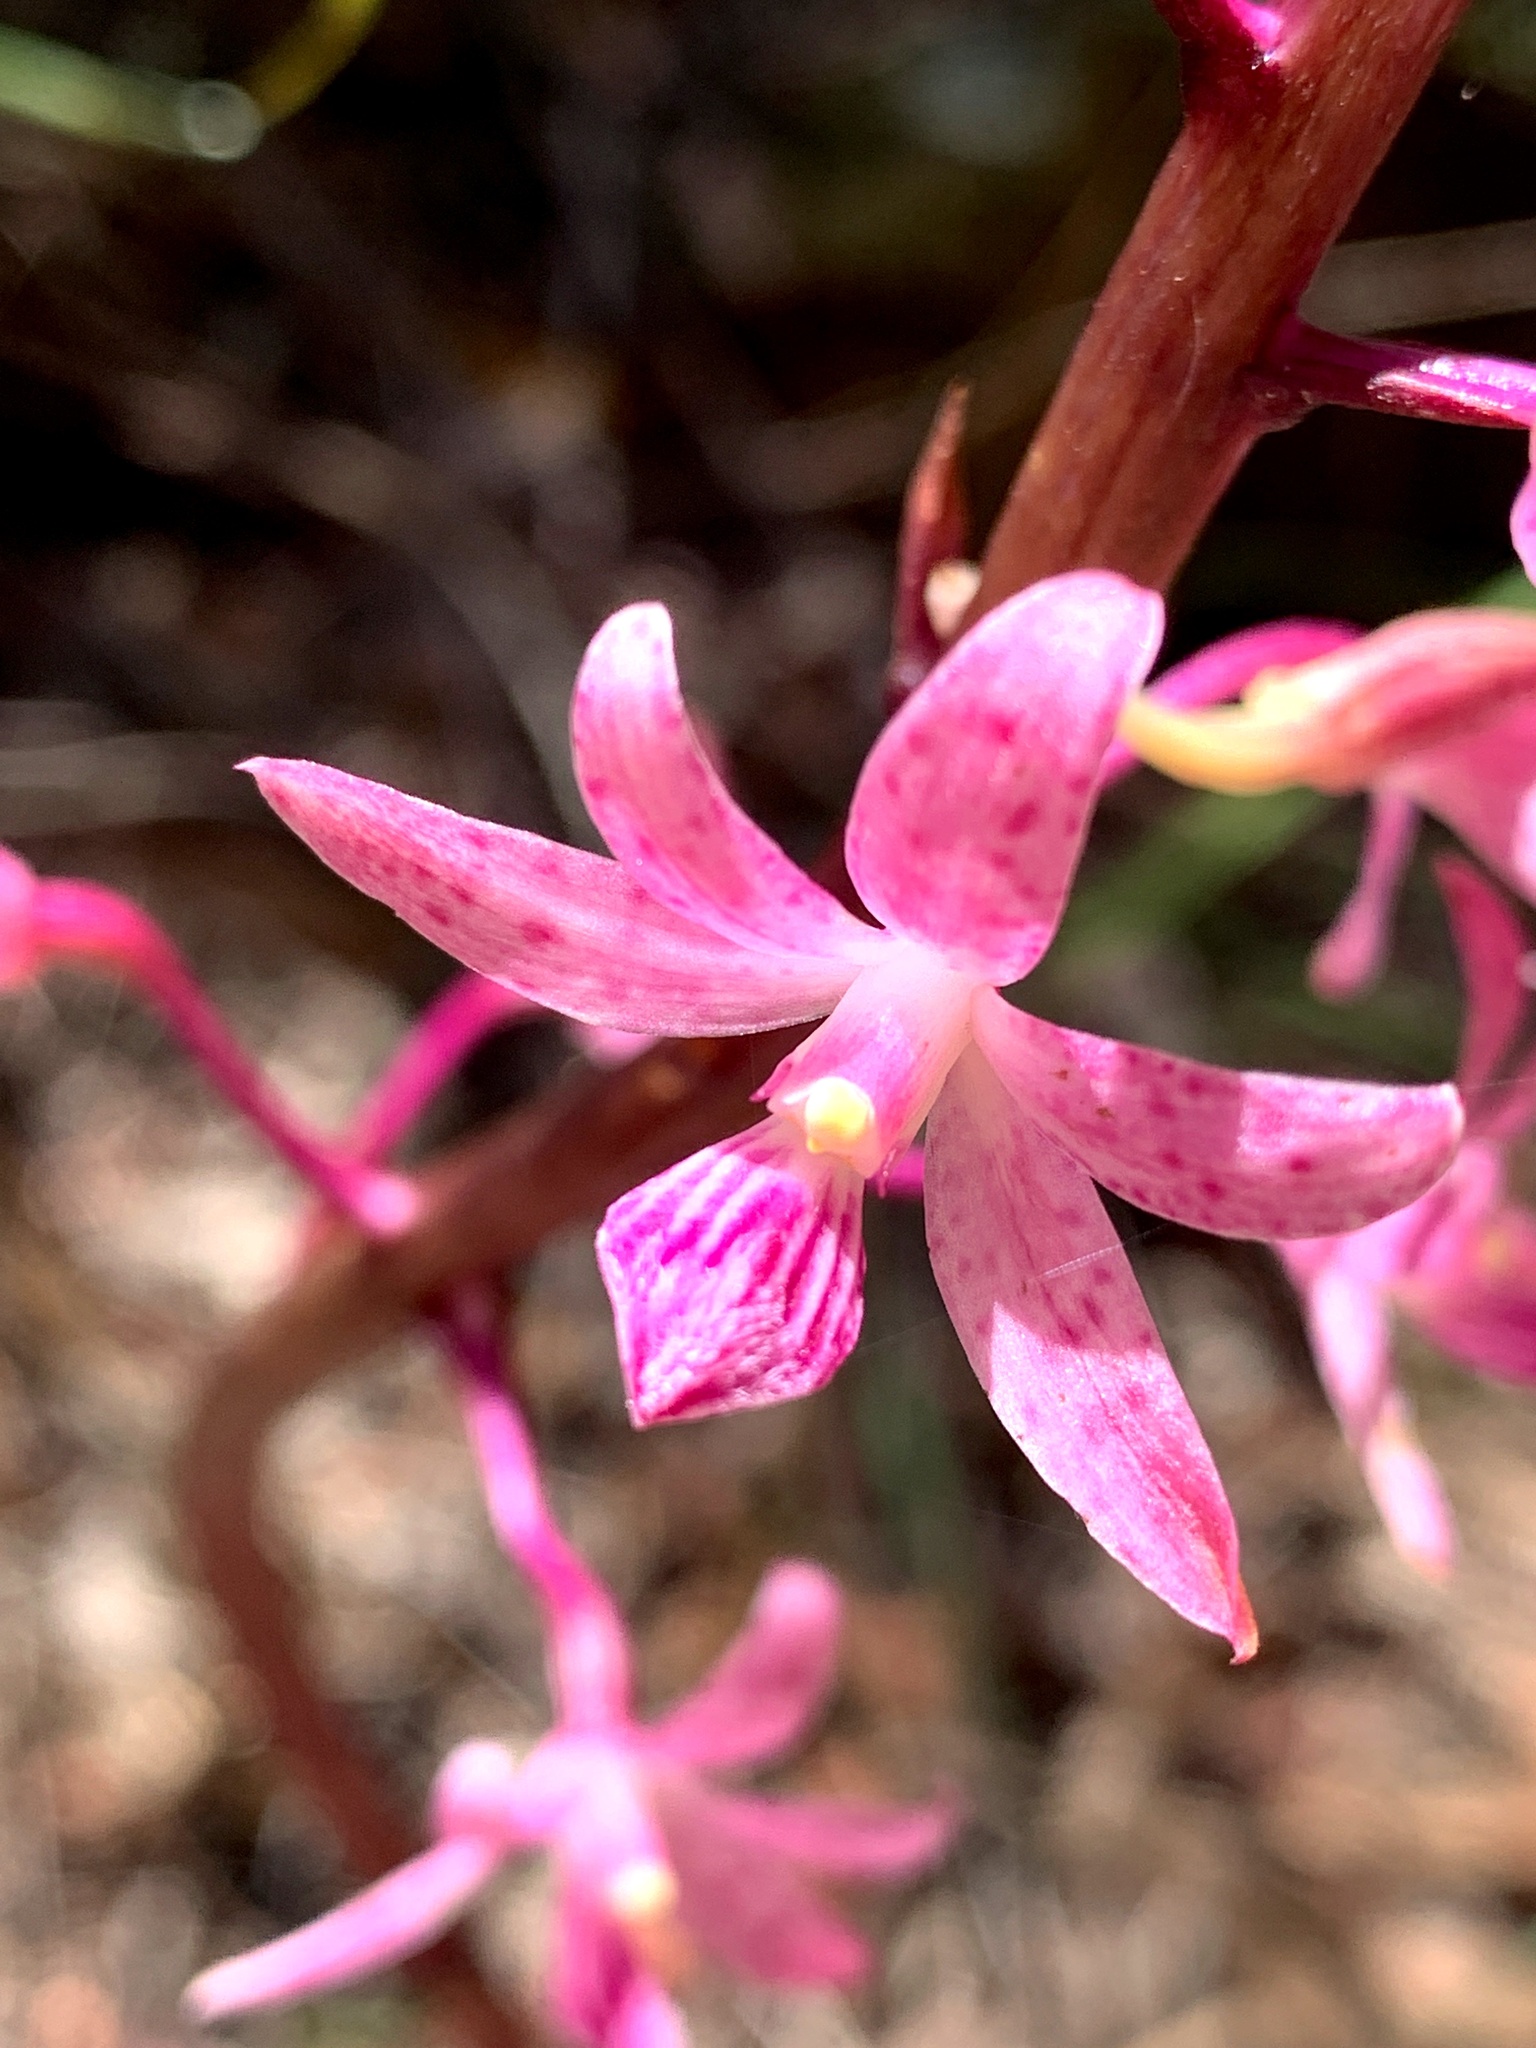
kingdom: Plantae
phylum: Tracheophyta
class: Liliopsida
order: Asparagales
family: Orchidaceae
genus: Dipodium
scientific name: Dipodium roseum
